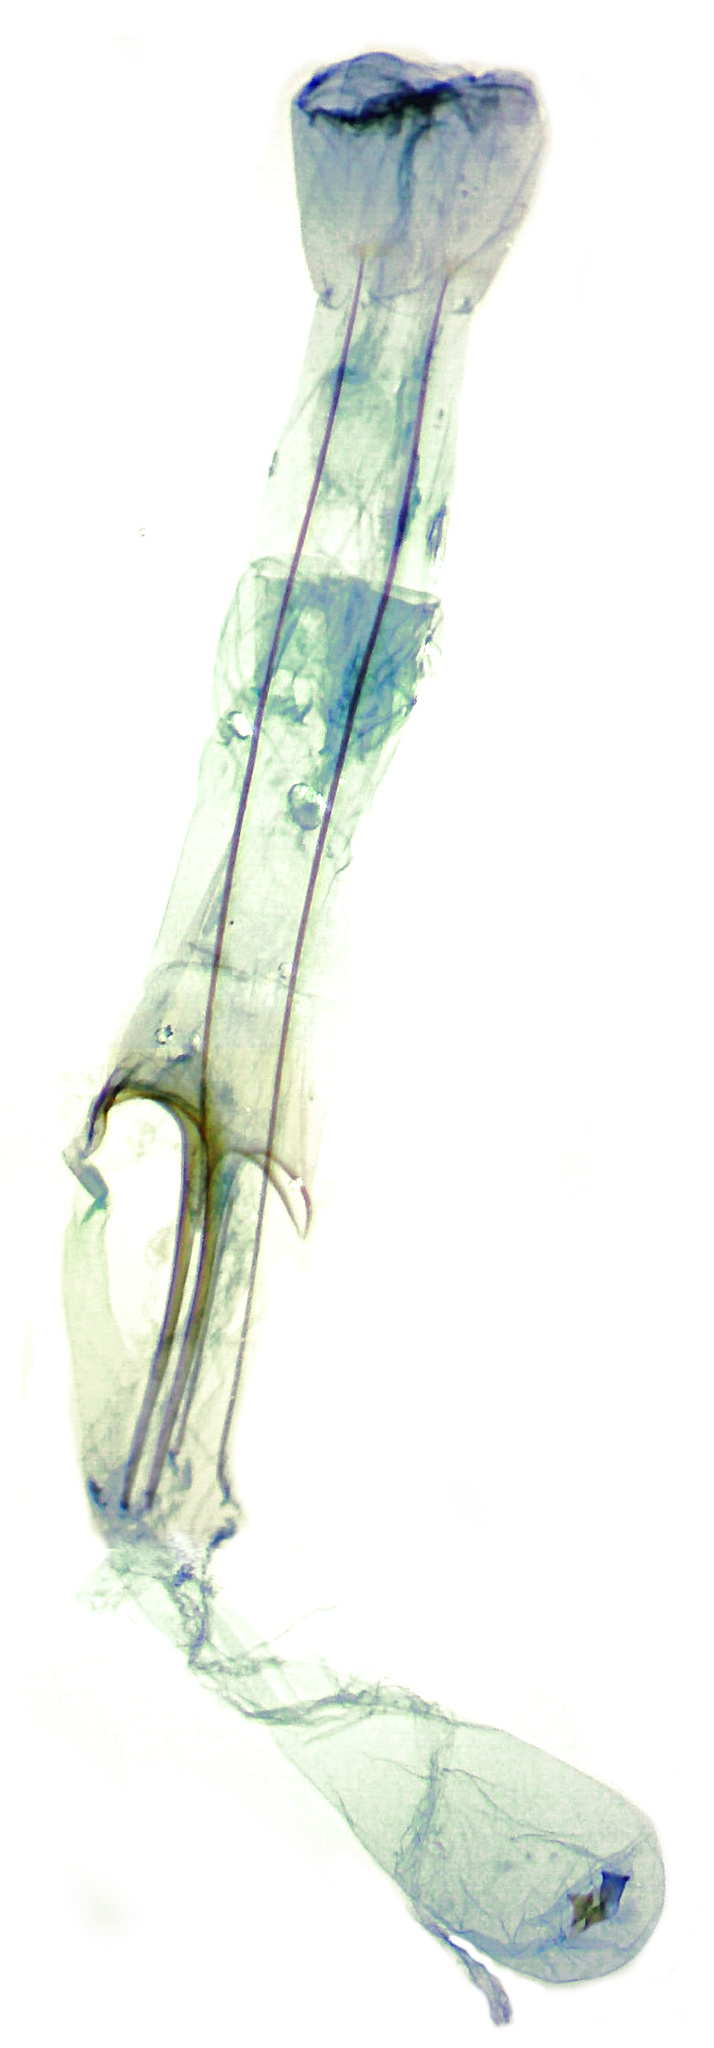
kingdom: Animalia
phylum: Arthropoda
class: Insecta
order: Lepidoptera
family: Gelechiidae
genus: Coleotechnites
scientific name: Coleotechnites albicostata
